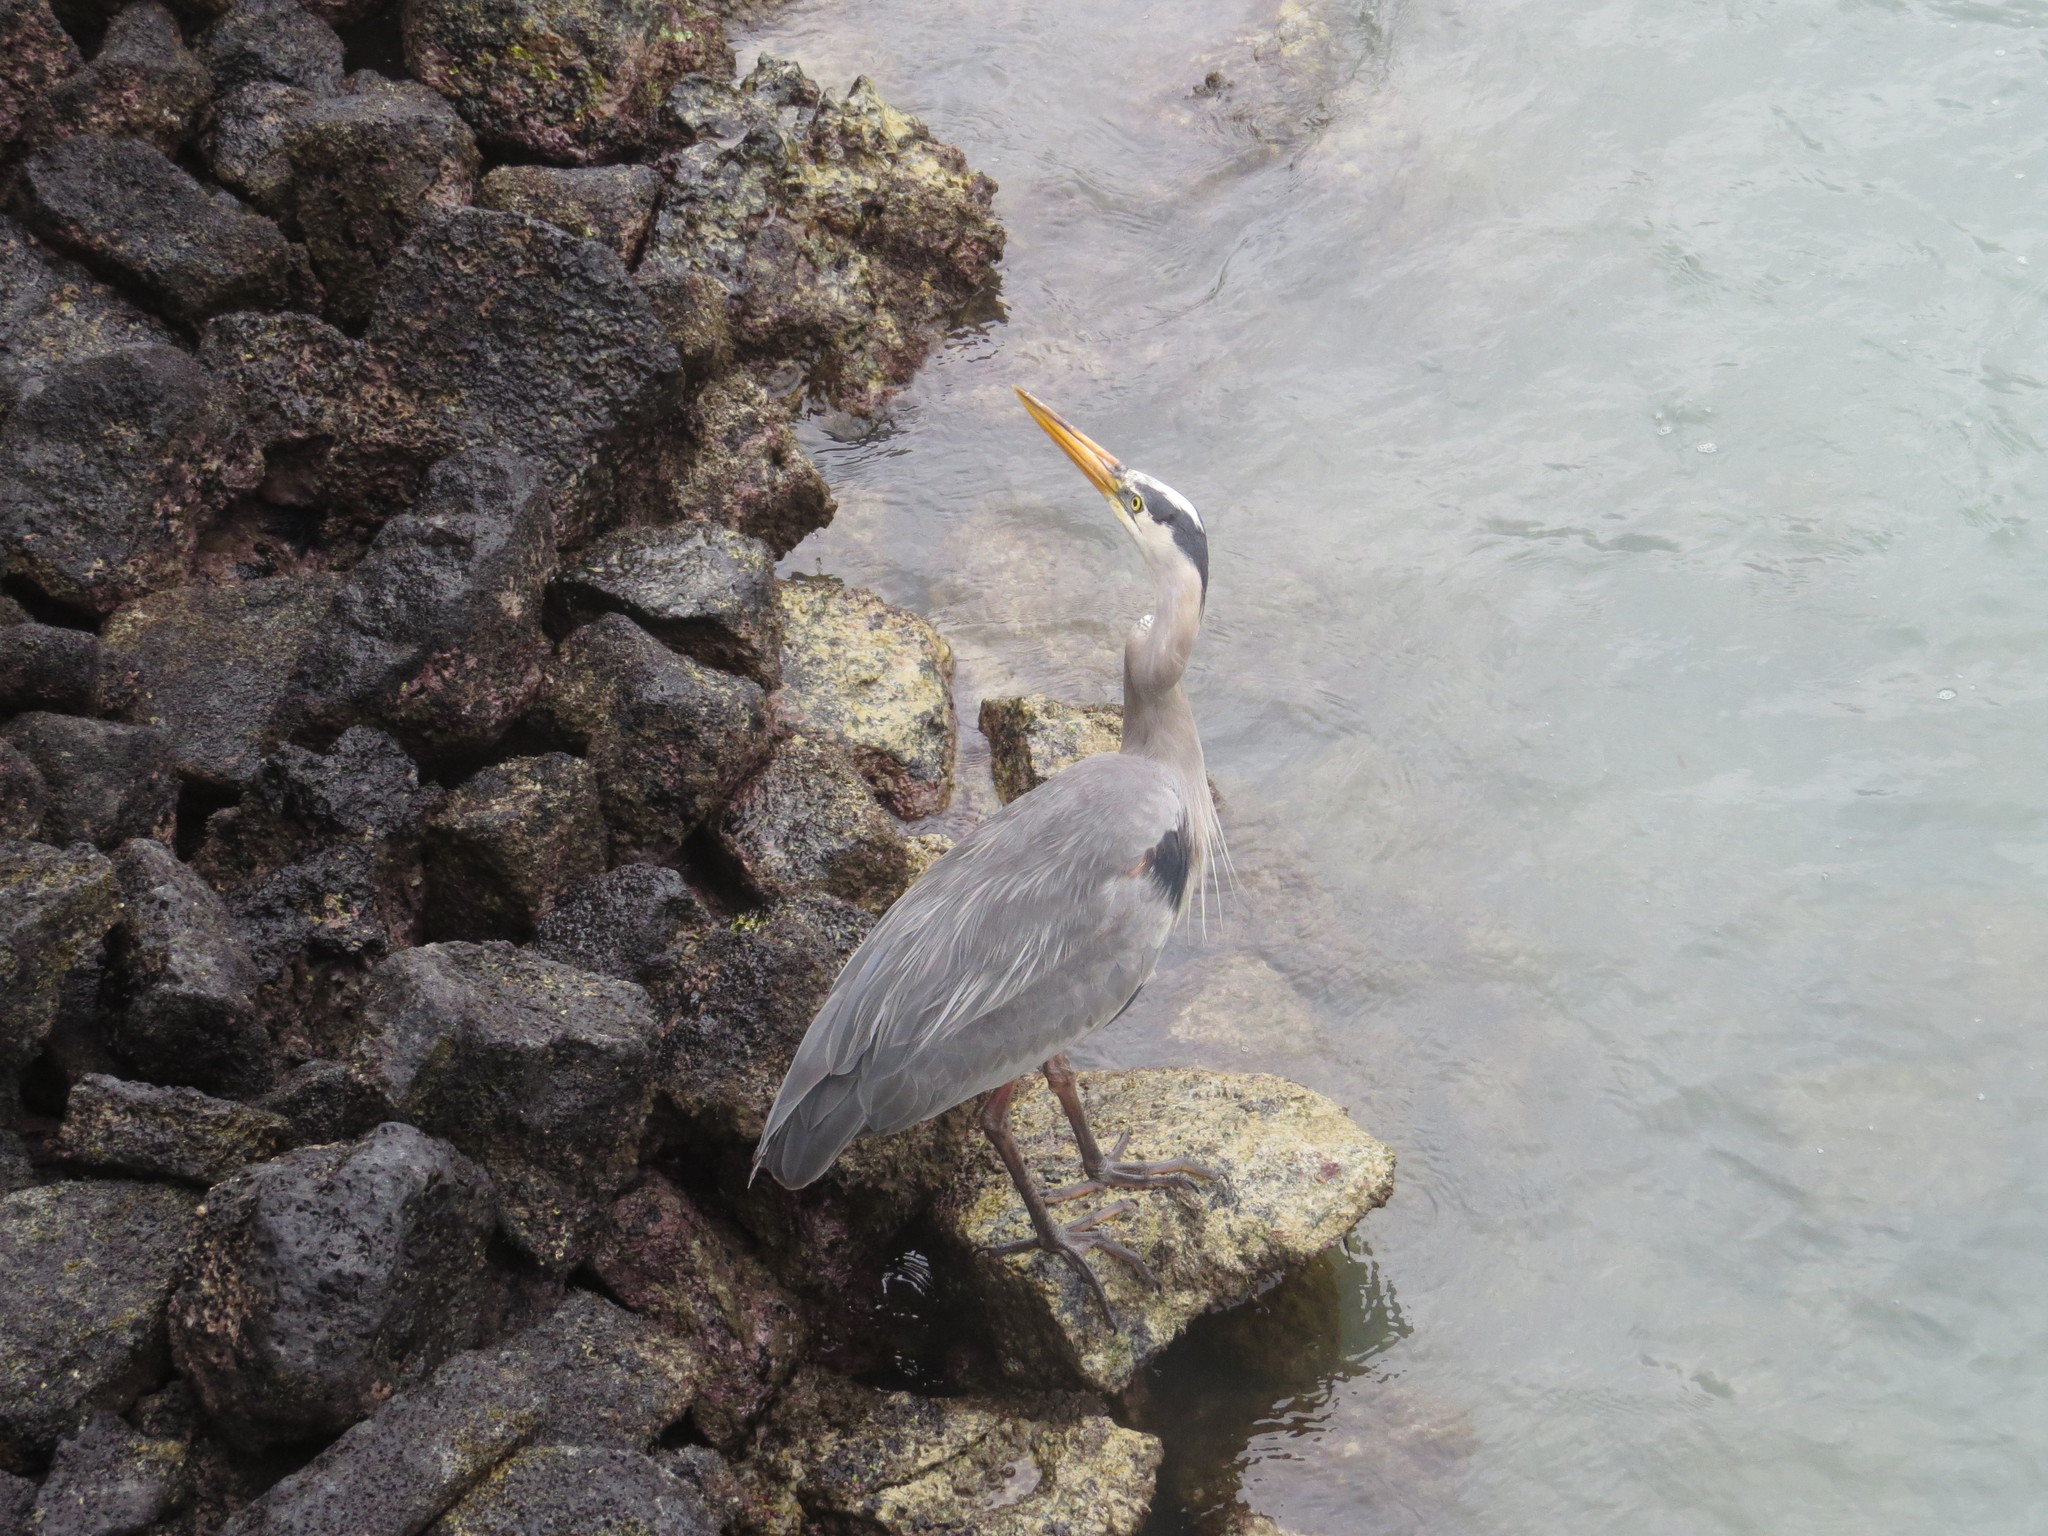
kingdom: Animalia
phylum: Chordata
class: Aves
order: Pelecaniformes
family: Ardeidae
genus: Ardea
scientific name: Ardea herodias
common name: Great blue heron
